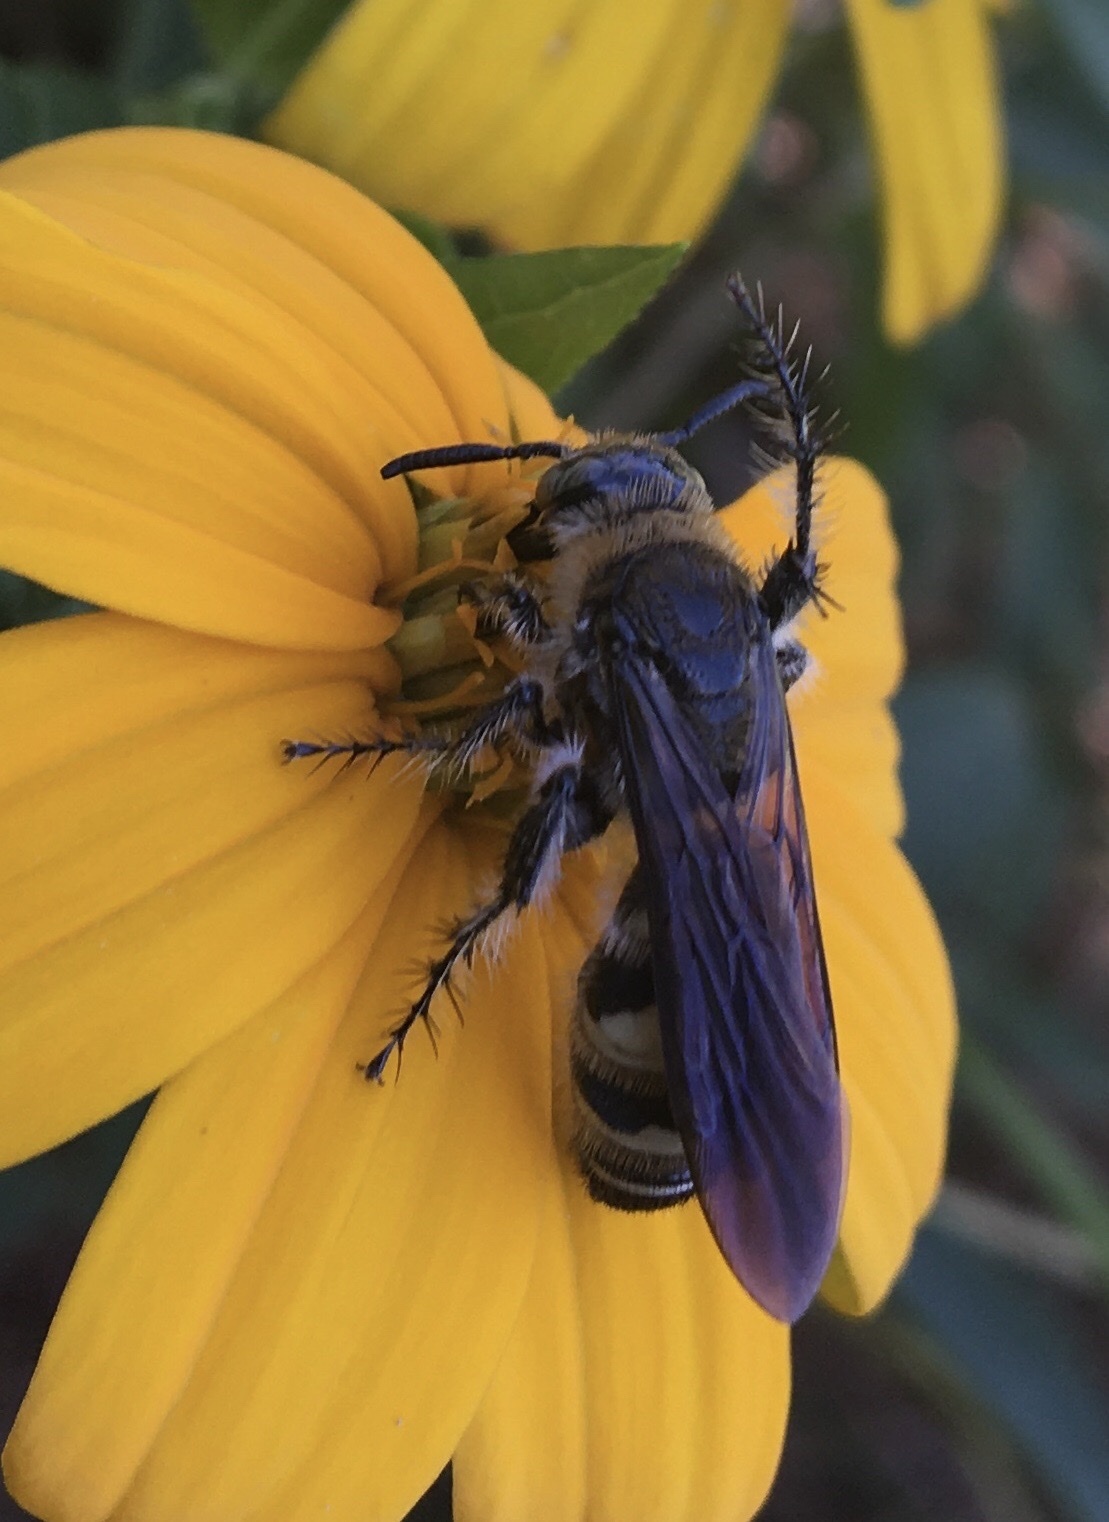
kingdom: Animalia
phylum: Arthropoda
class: Insecta
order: Hymenoptera
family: Scoliidae
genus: Dielis
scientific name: Dielis
